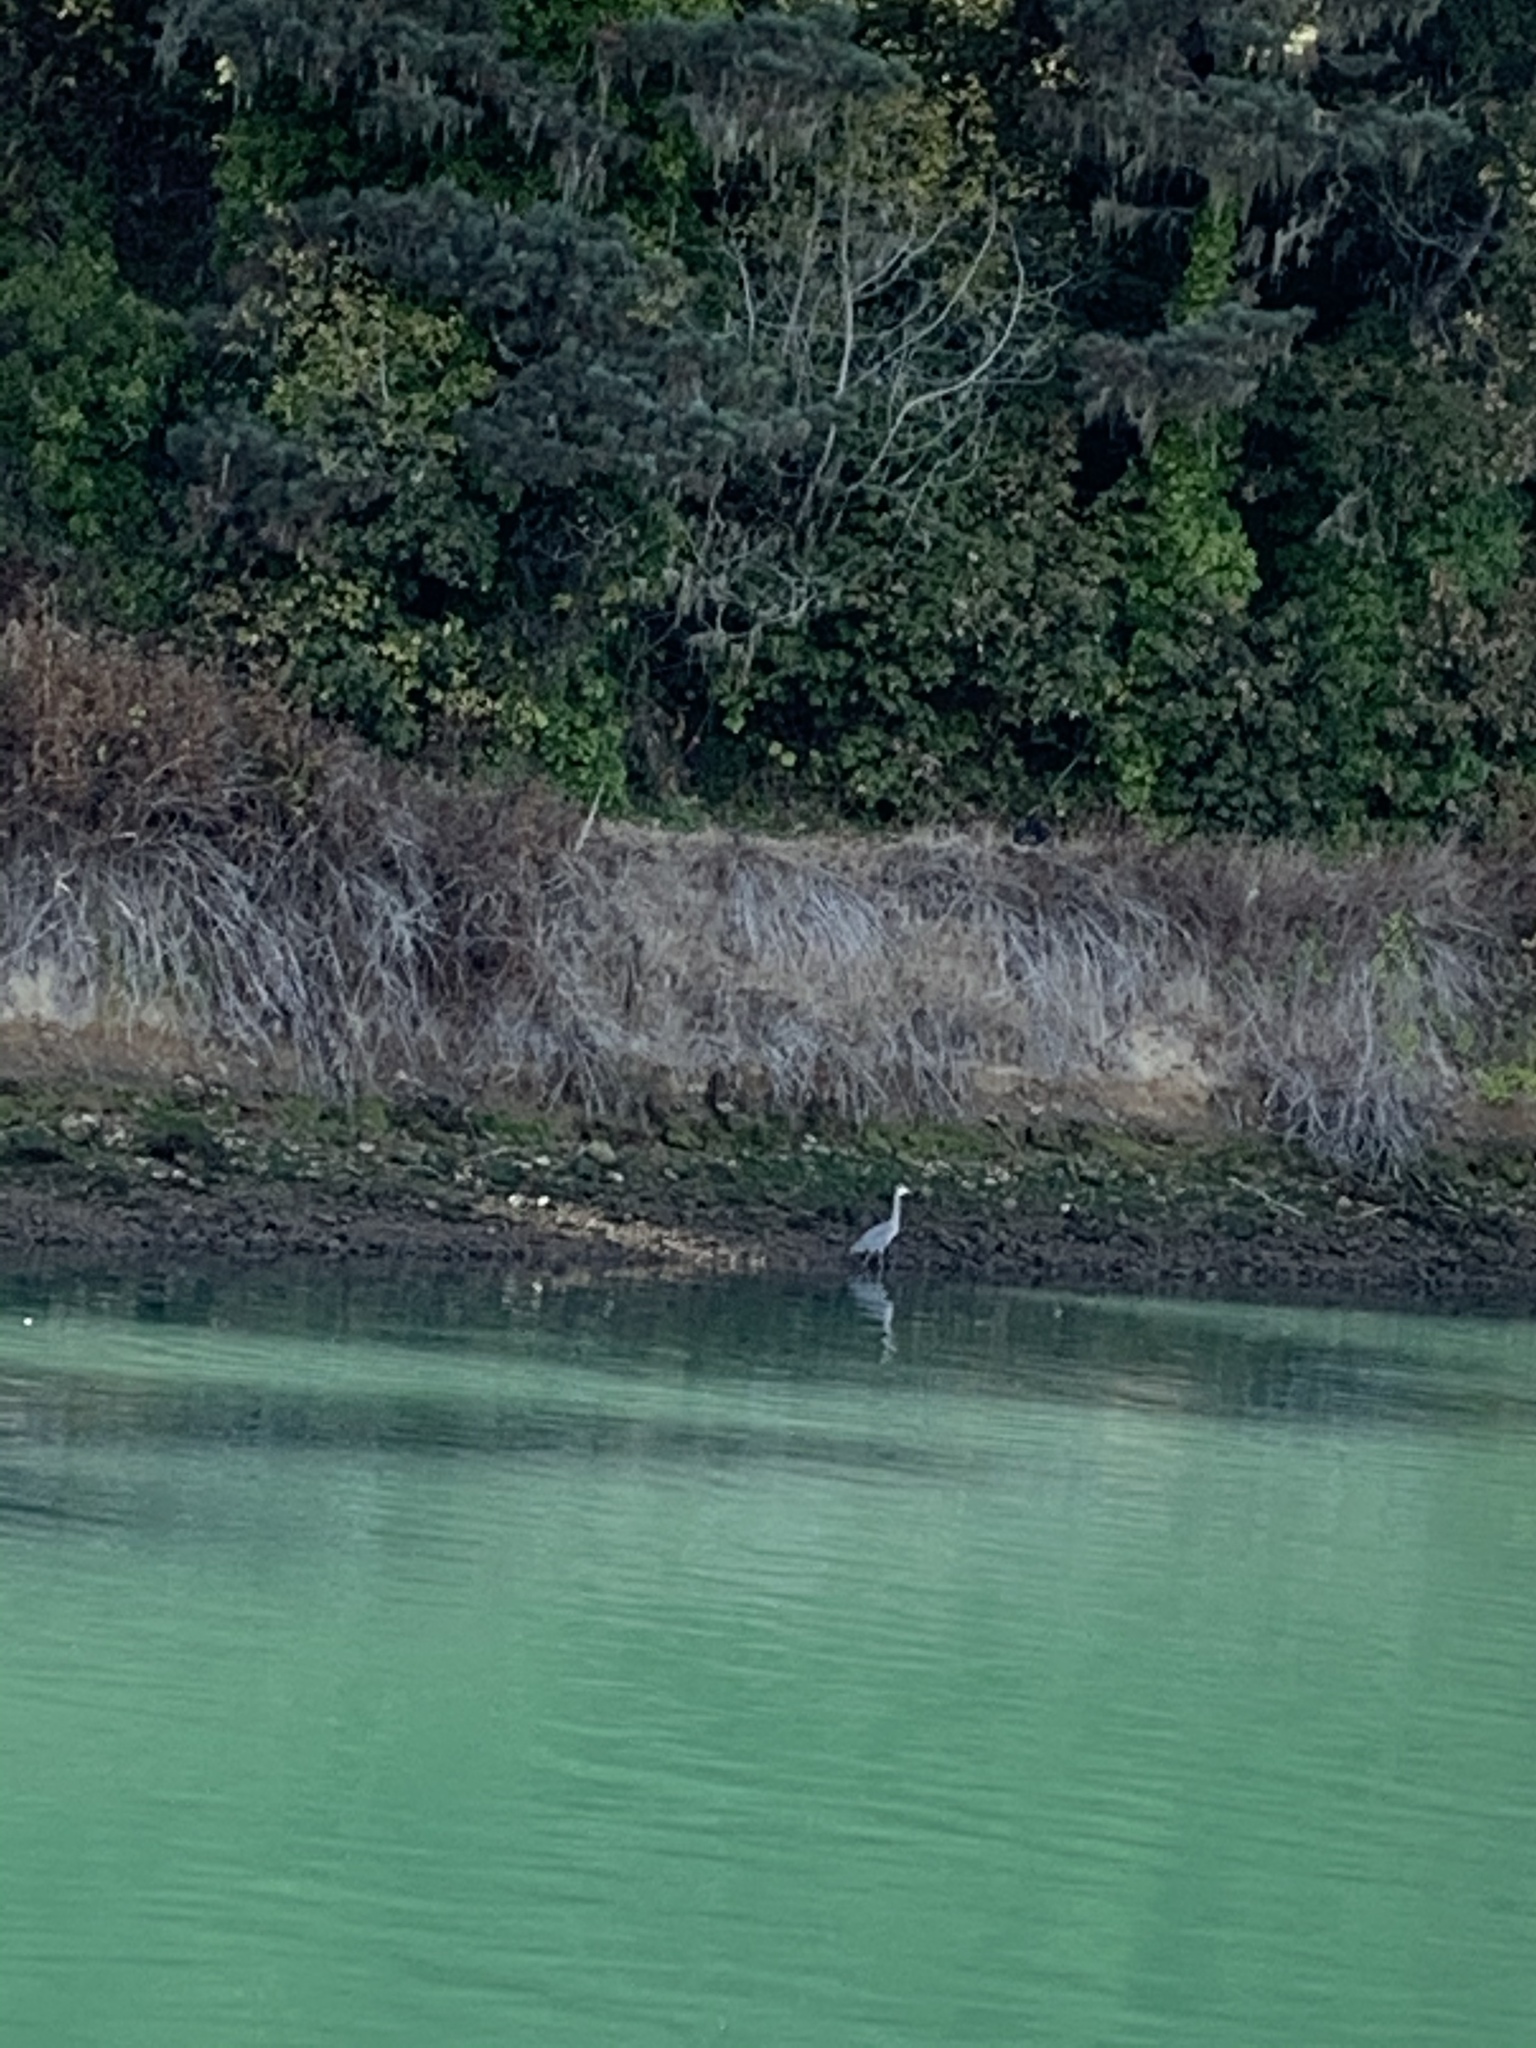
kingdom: Animalia
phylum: Chordata
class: Aves
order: Pelecaniformes
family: Ardeidae
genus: Ardea
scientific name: Ardea herodias
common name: Great blue heron
